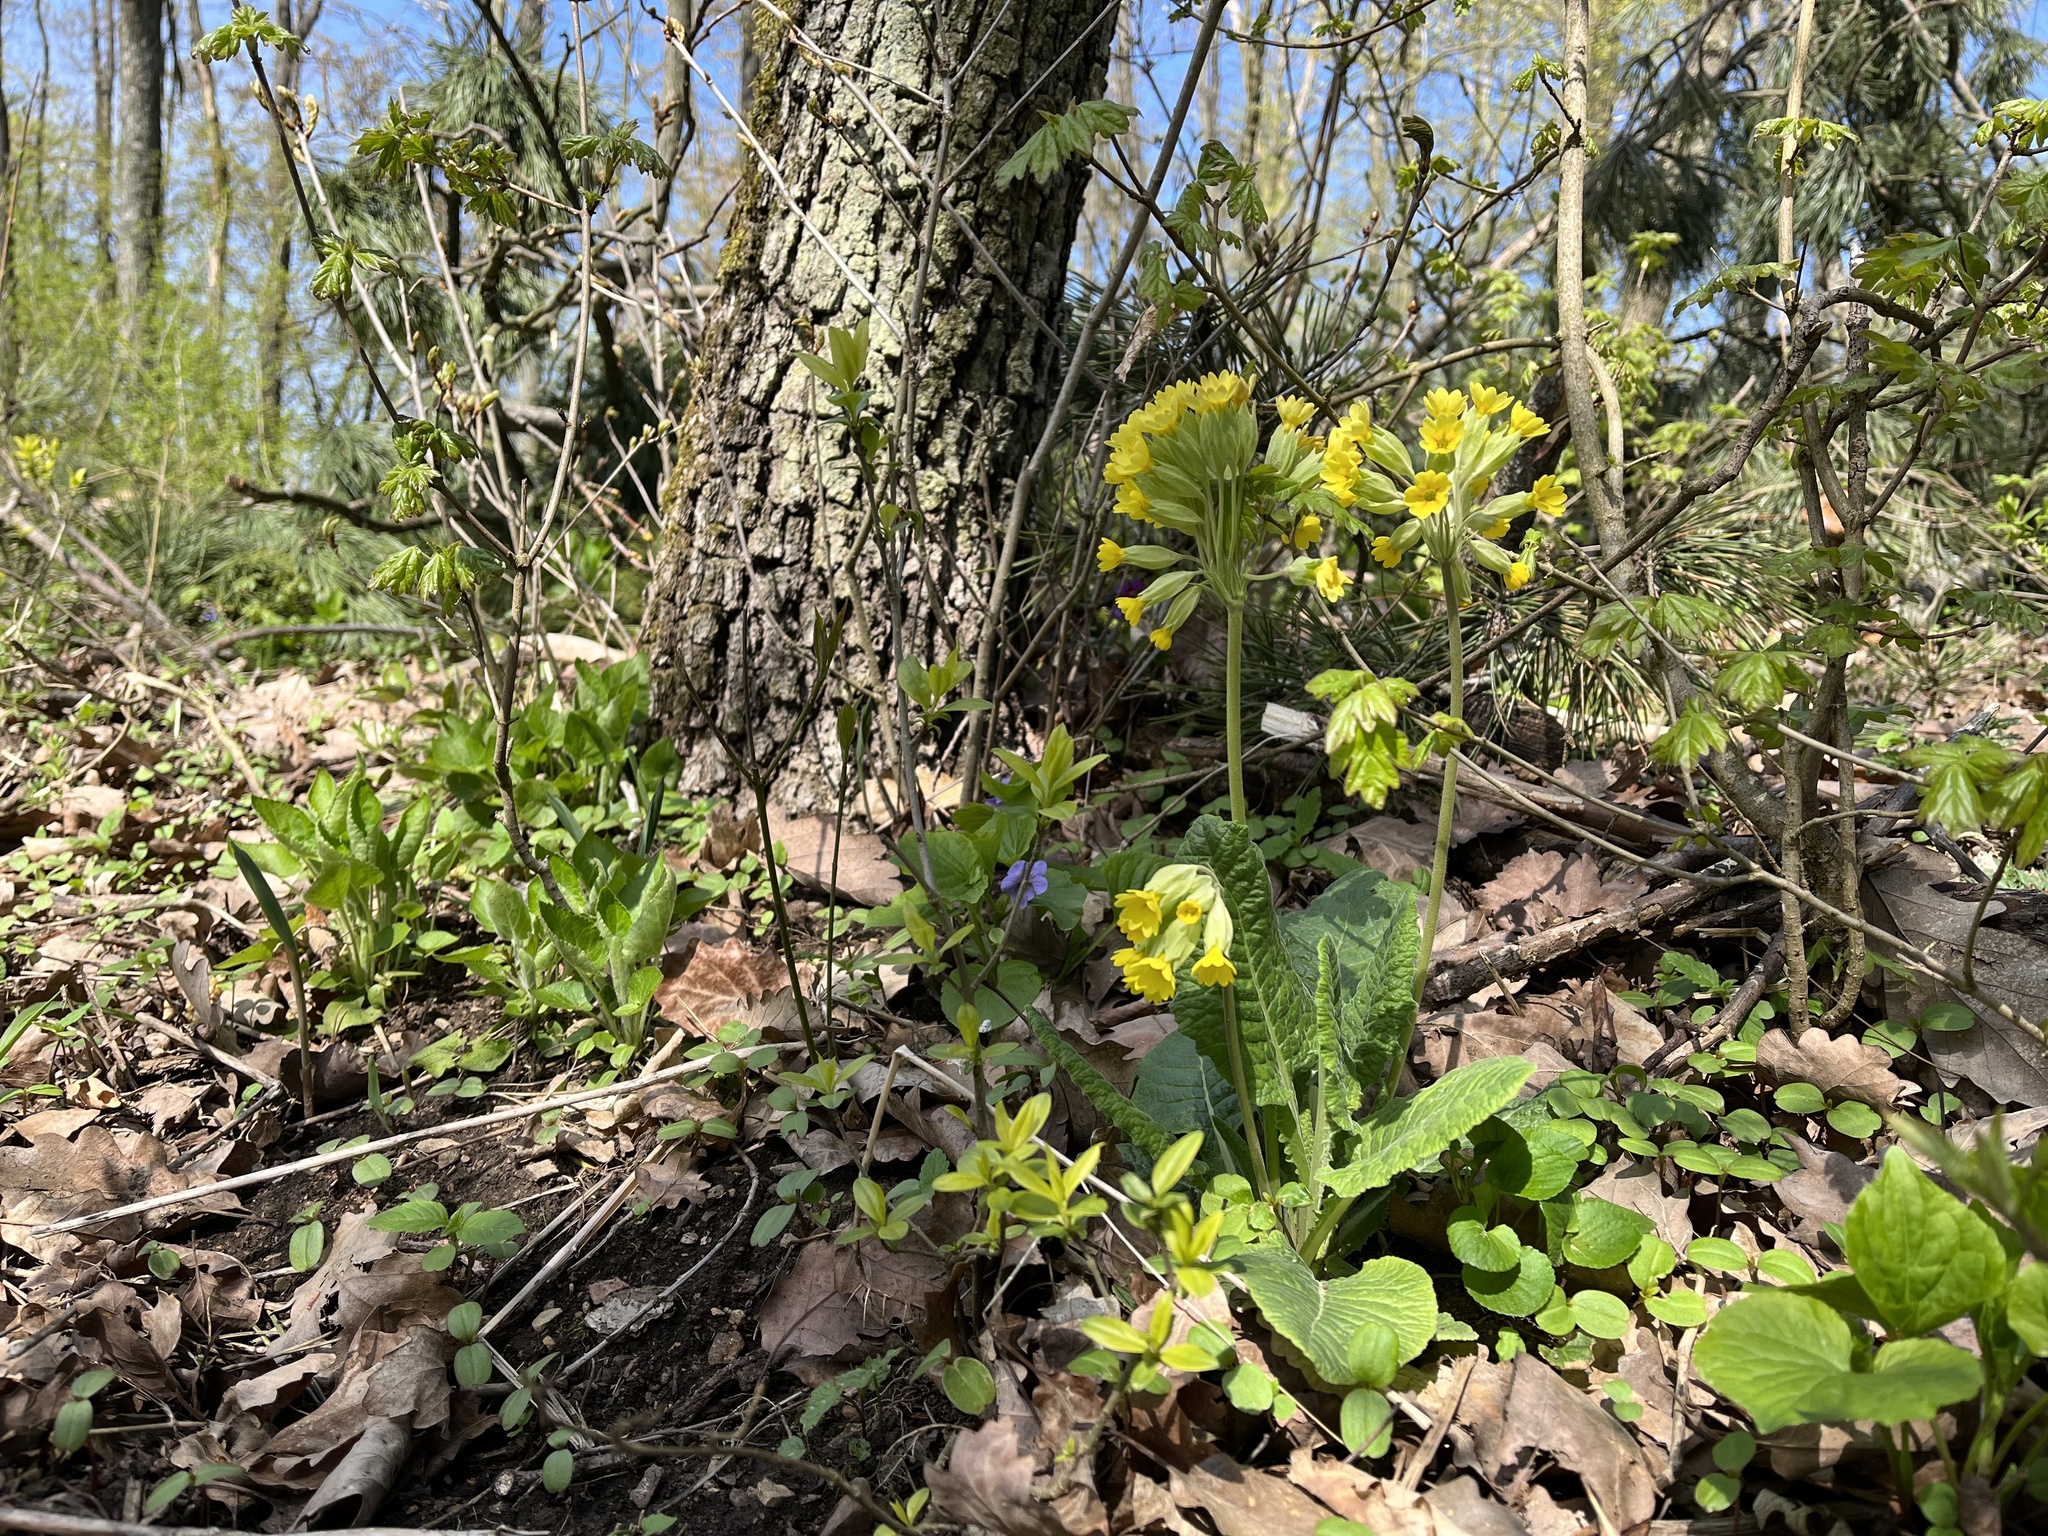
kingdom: Plantae
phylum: Tracheophyta
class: Magnoliopsida
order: Ericales
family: Primulaceae
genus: Primula
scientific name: Primula veris
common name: Cowslip
